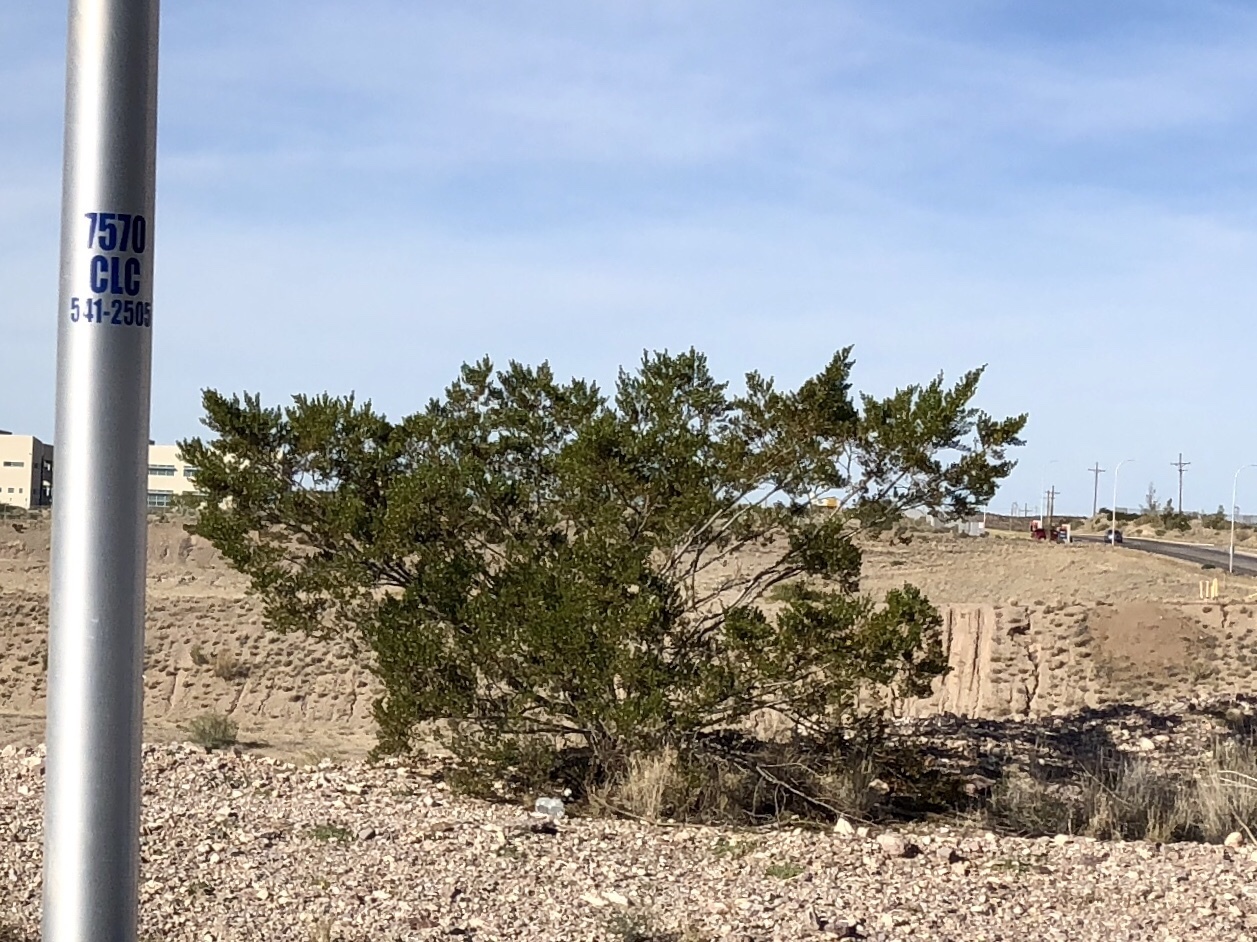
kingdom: Plantae
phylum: Tracheophyta
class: Magnoliopsida
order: Zygophyllales
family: Zygophyllaceae
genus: Larrea
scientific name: Larrea tridentata
